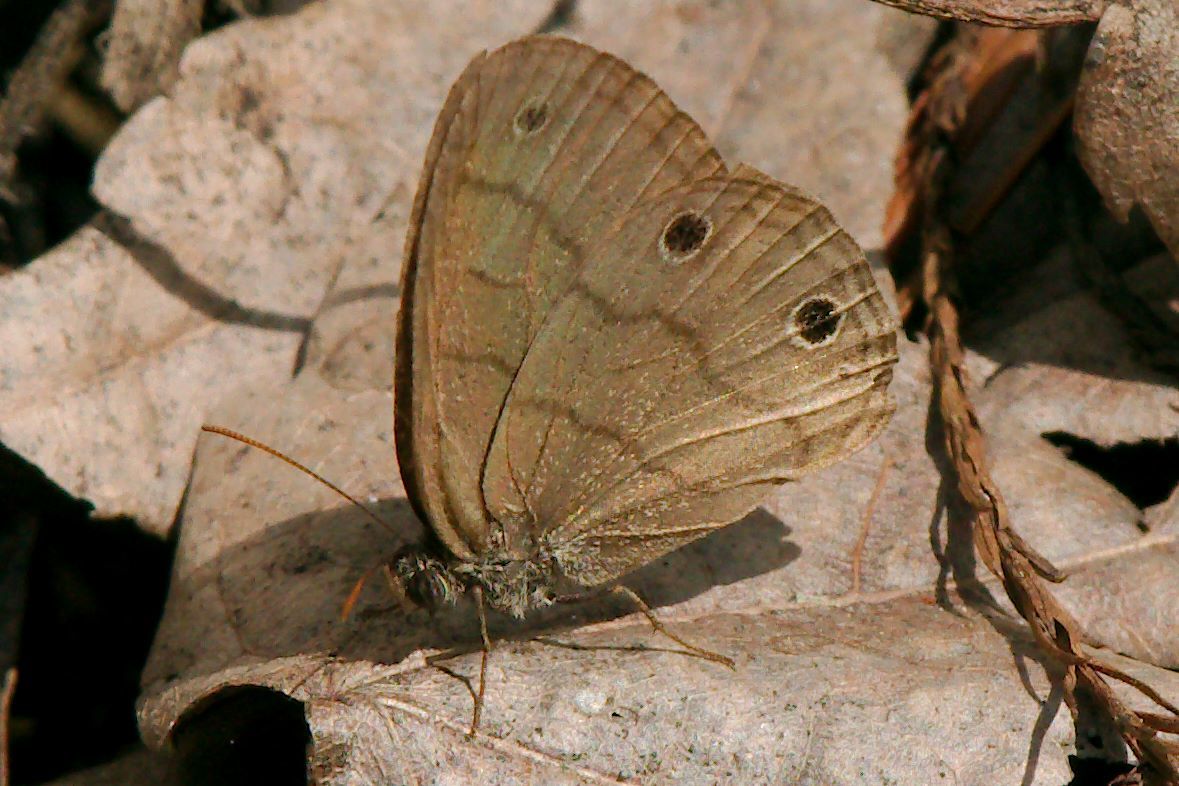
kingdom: Animalia
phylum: Arthropoda
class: Insecta
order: Lepidoptera
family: Nymphalidae
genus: Hermeuptychia
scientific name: Hermeuptychia hermes
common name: Hermes satyr
